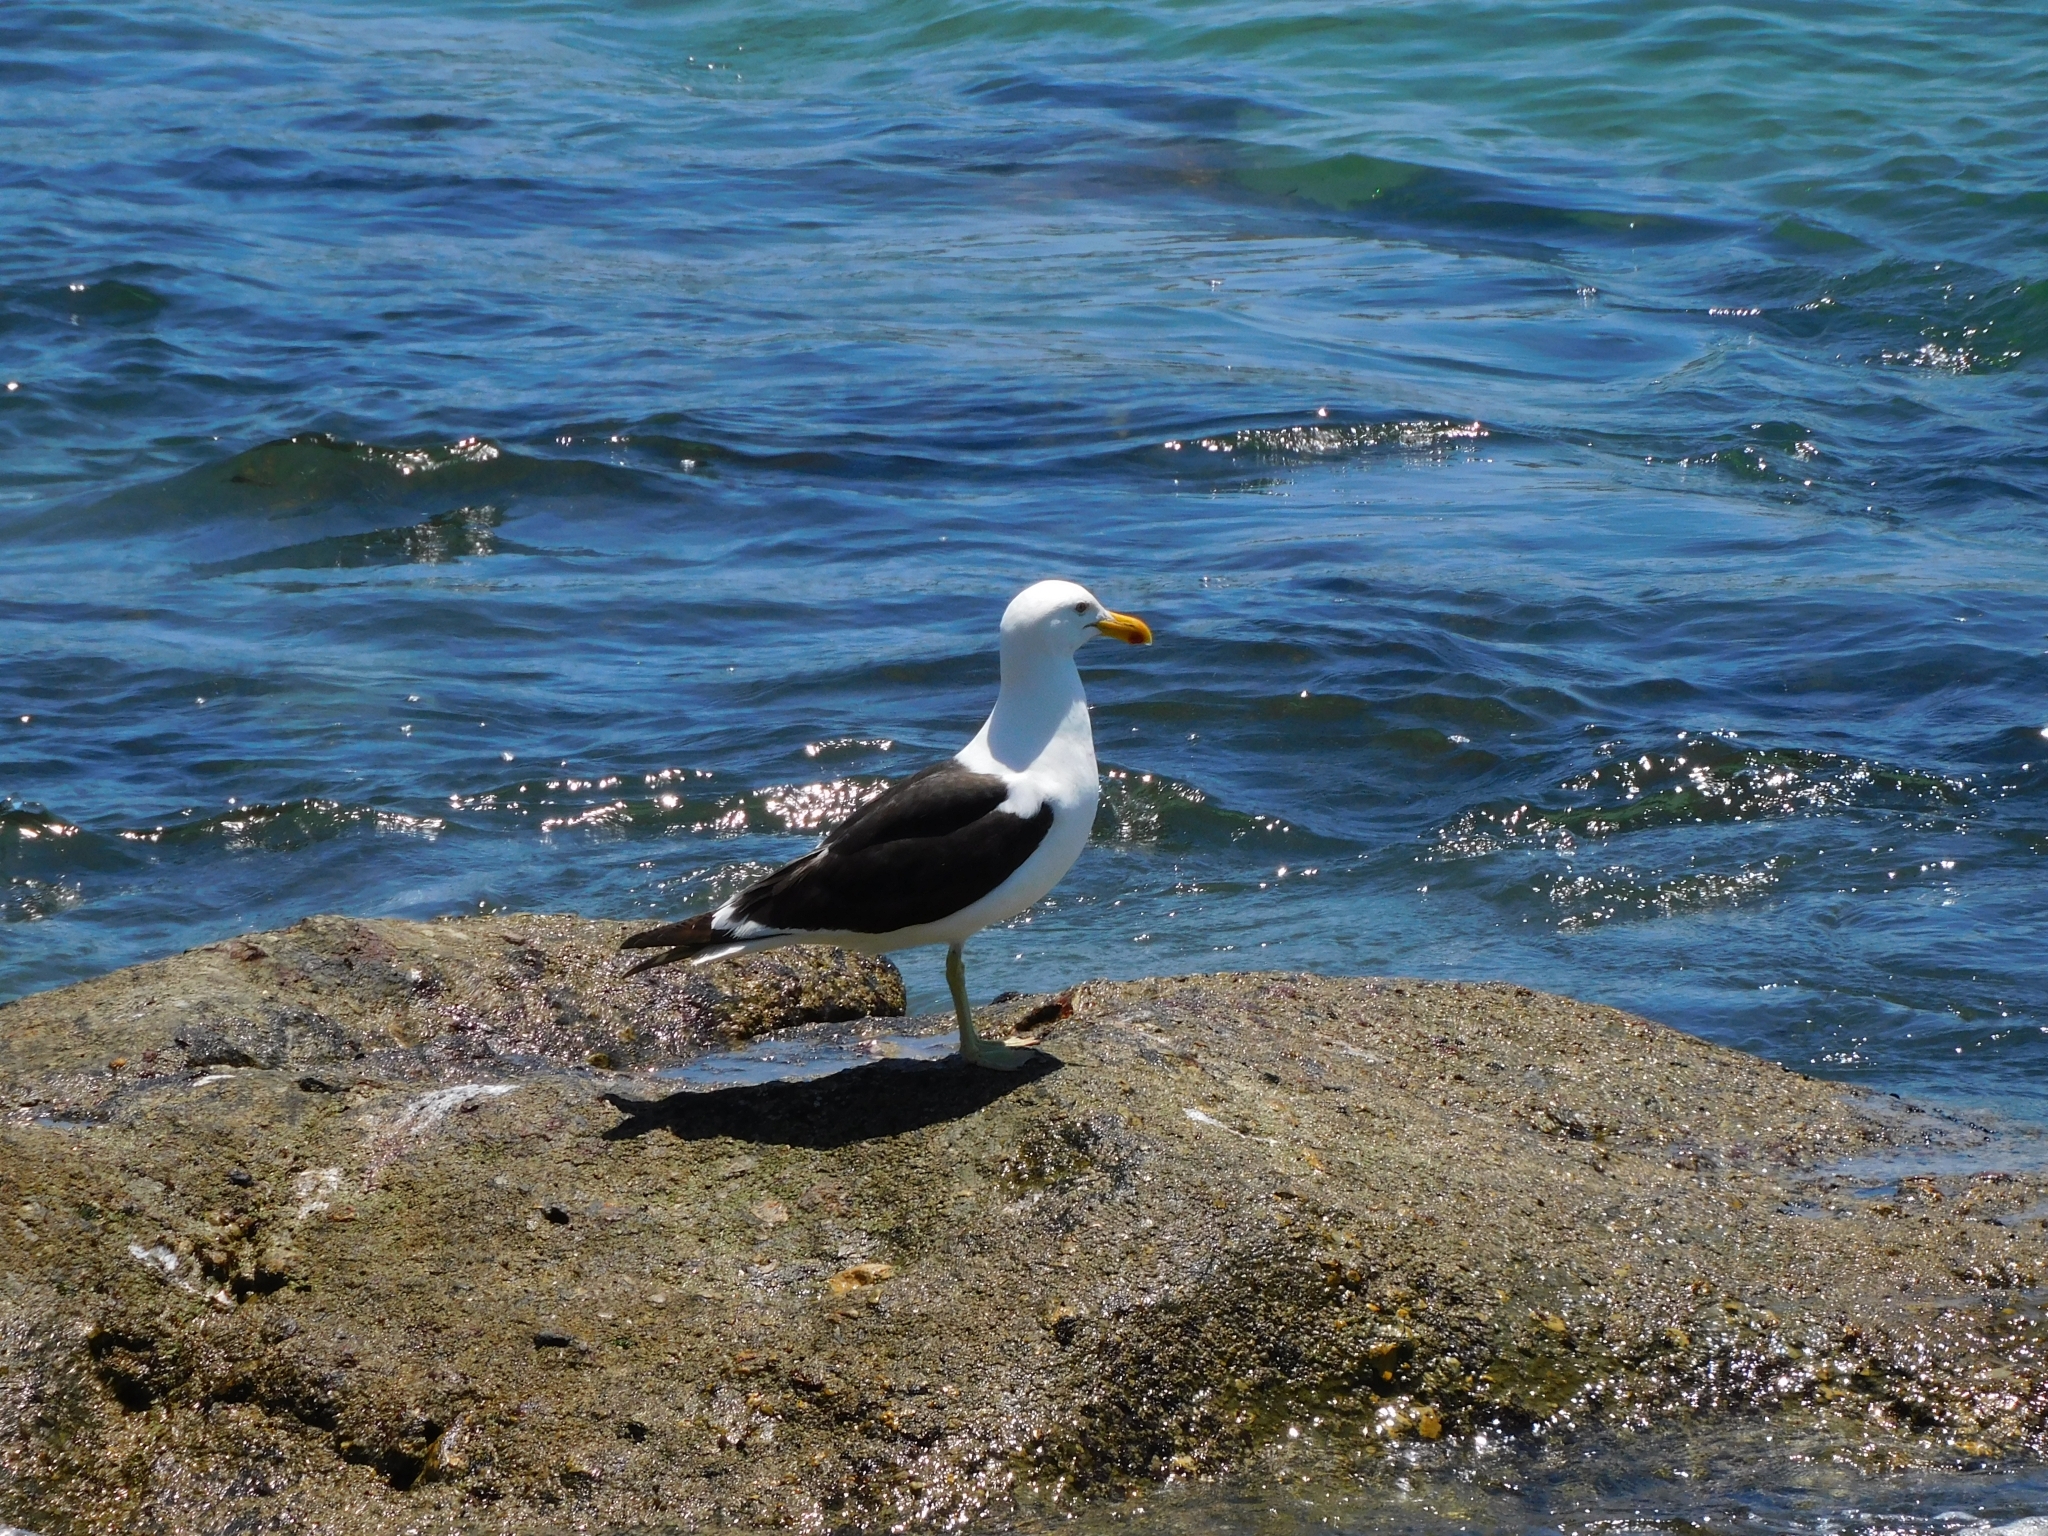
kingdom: Animalia
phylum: Chordata
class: Aves
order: Charadriiformes
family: Laridae
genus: Larus
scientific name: Larus dominicanus
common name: Kelp gull
